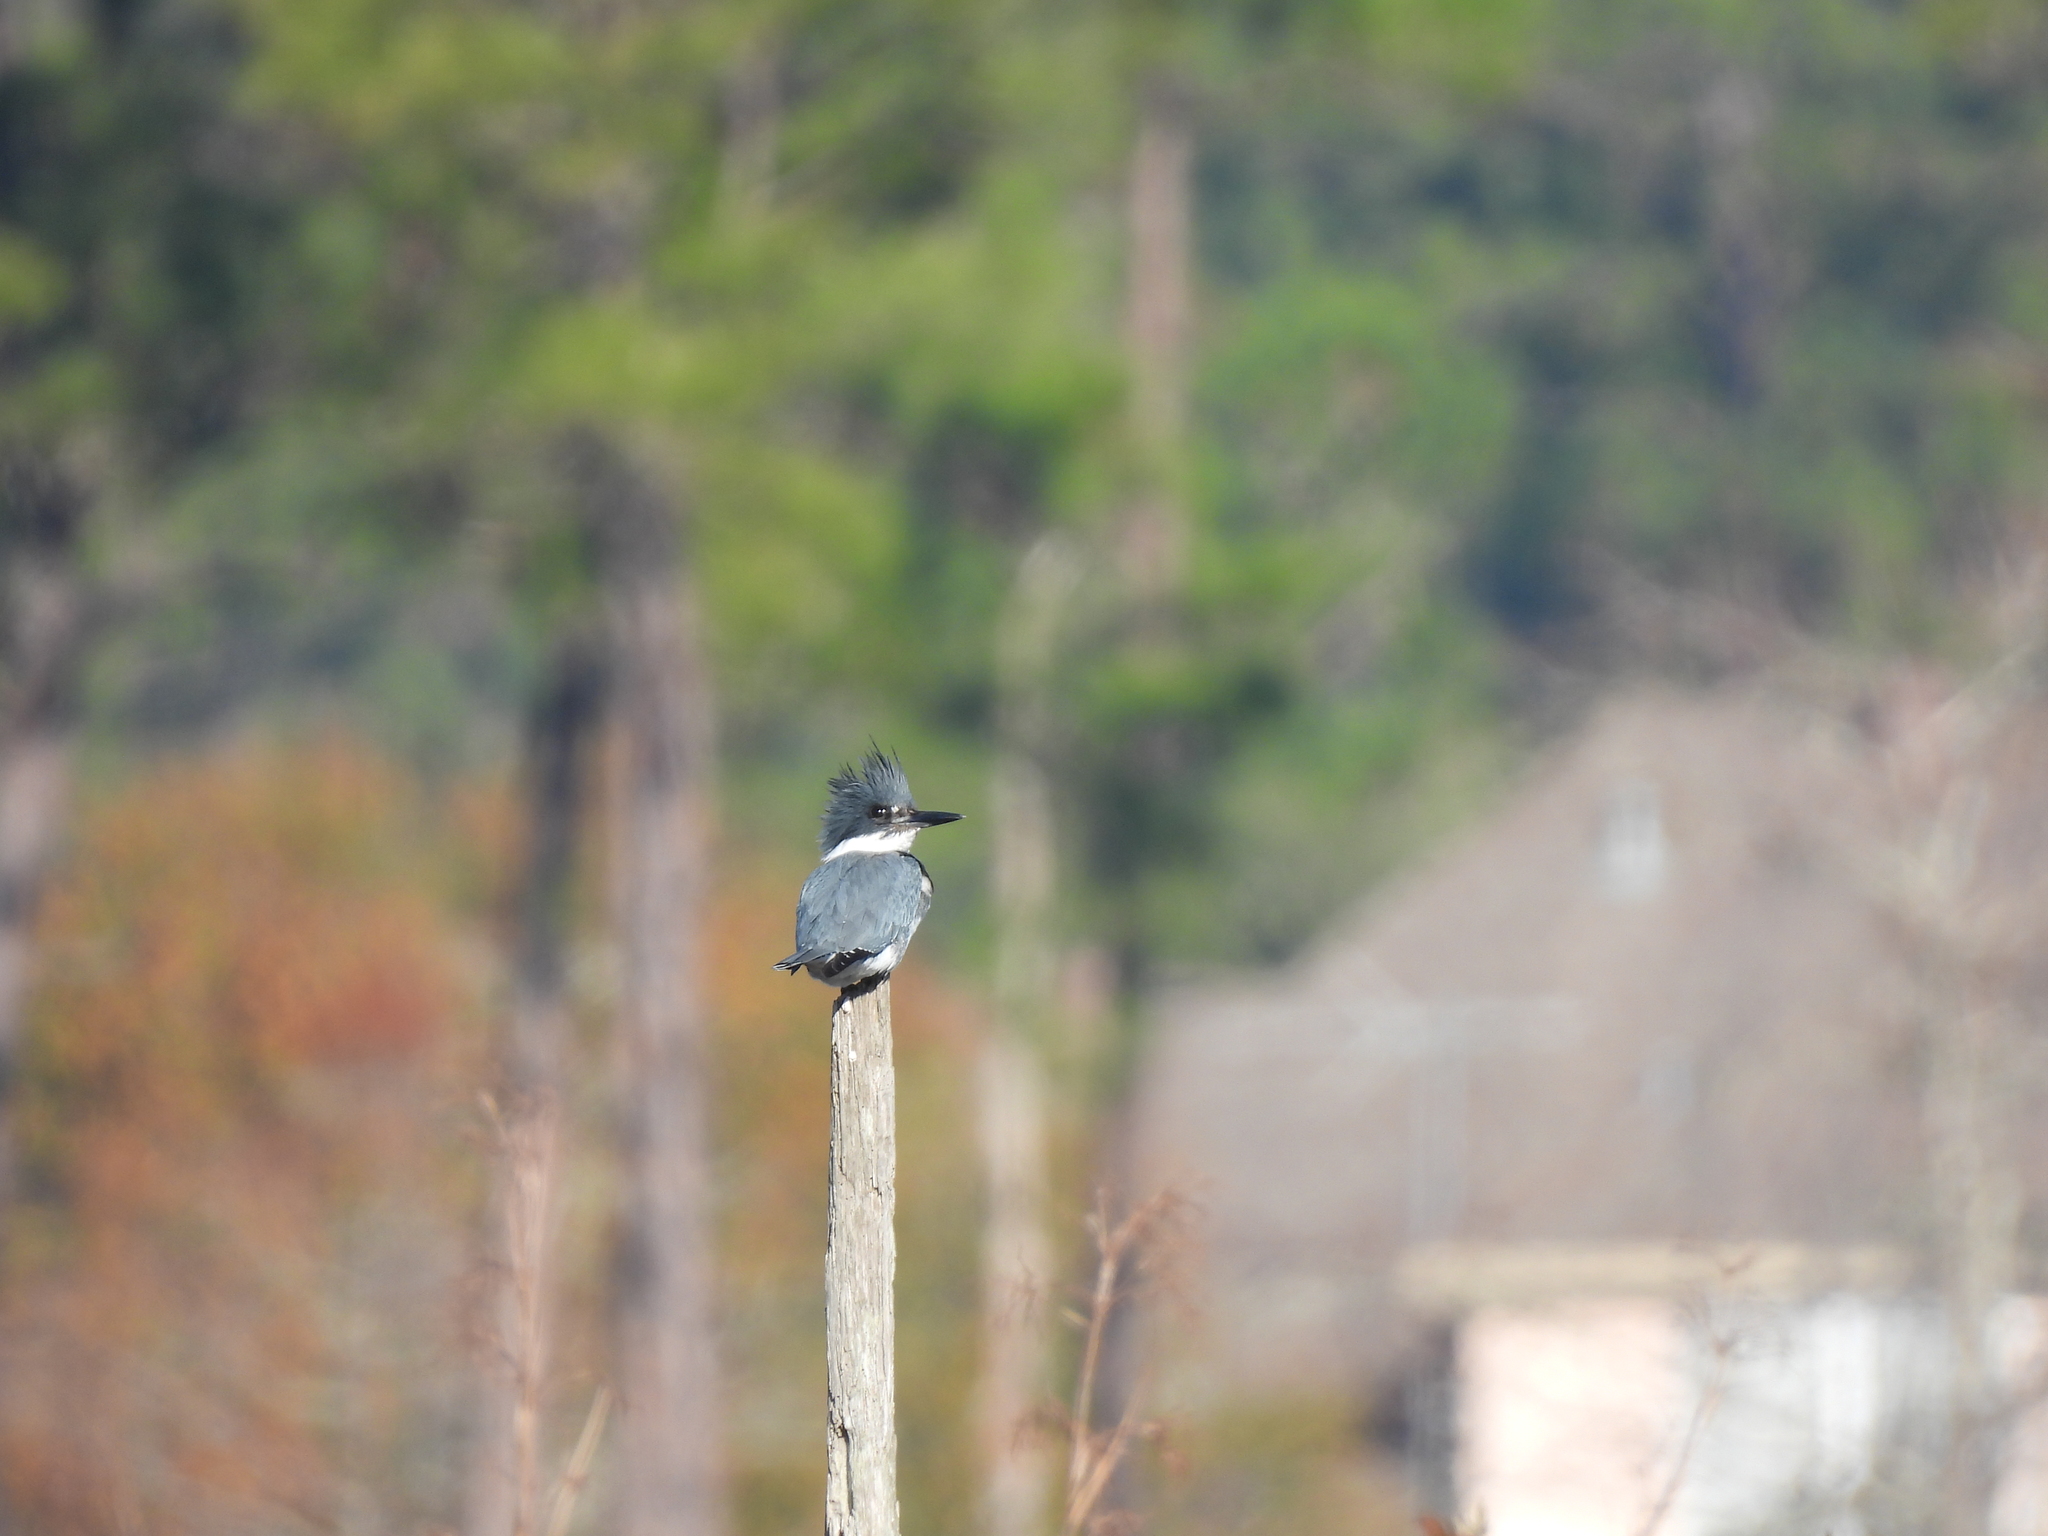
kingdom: Animalia
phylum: Chordata
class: Aves
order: Coraciiformes
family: Alcedinidae
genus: Megaceryle
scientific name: Megaceryle alcyon
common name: Belted kingfisher
